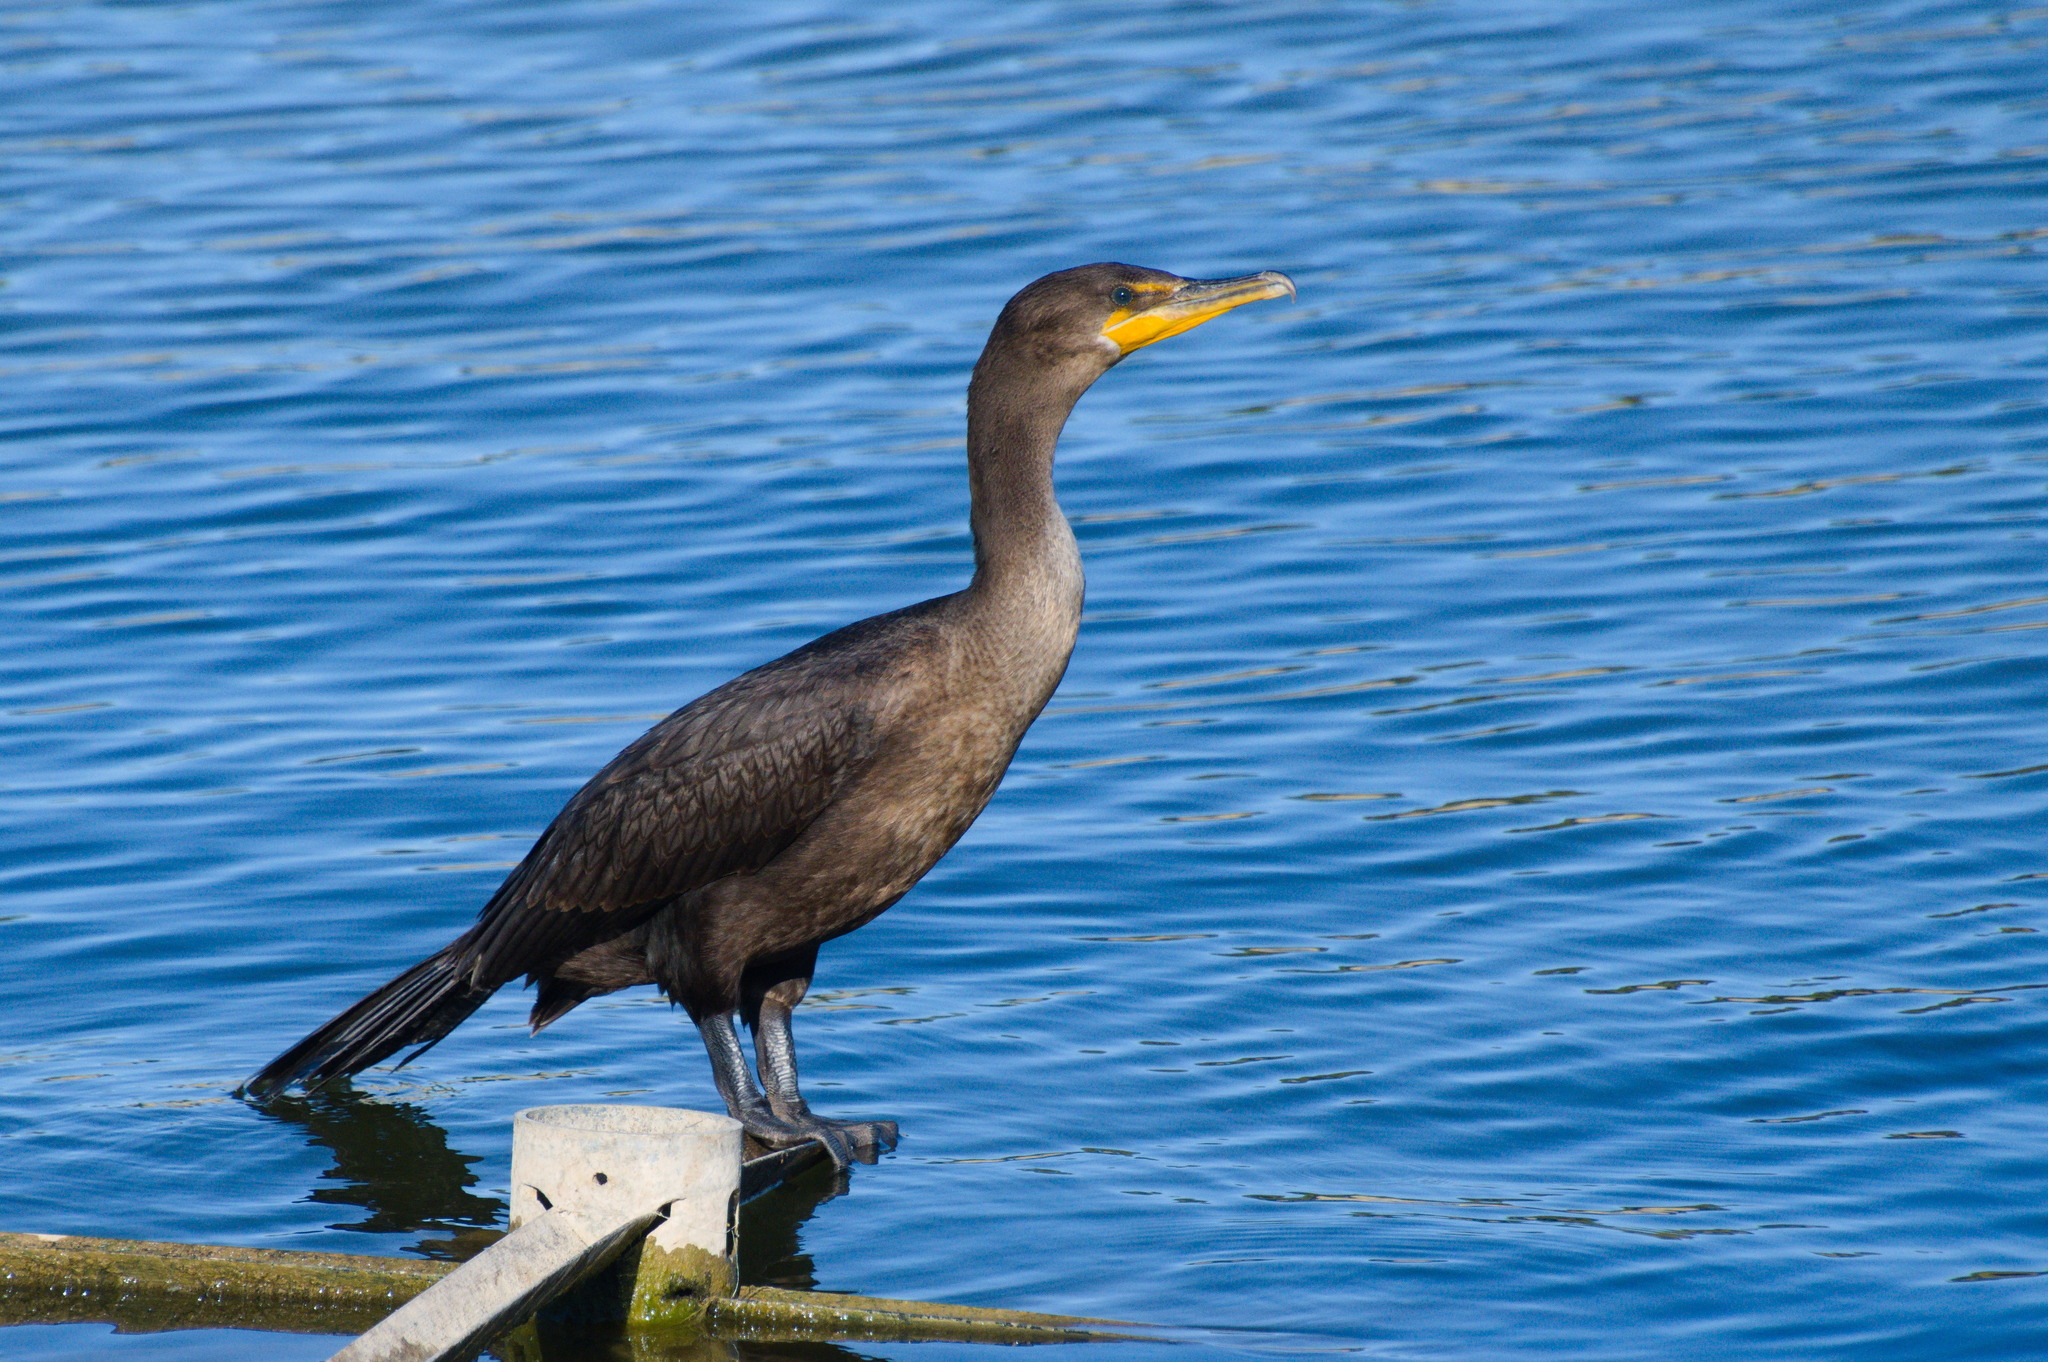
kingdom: Animalia
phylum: Chordata
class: Aves
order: Suliformes
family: Phalacrocoracidae
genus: Phalacrocorax
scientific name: Phalacrocorax auritus
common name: Double-crested cormorant
